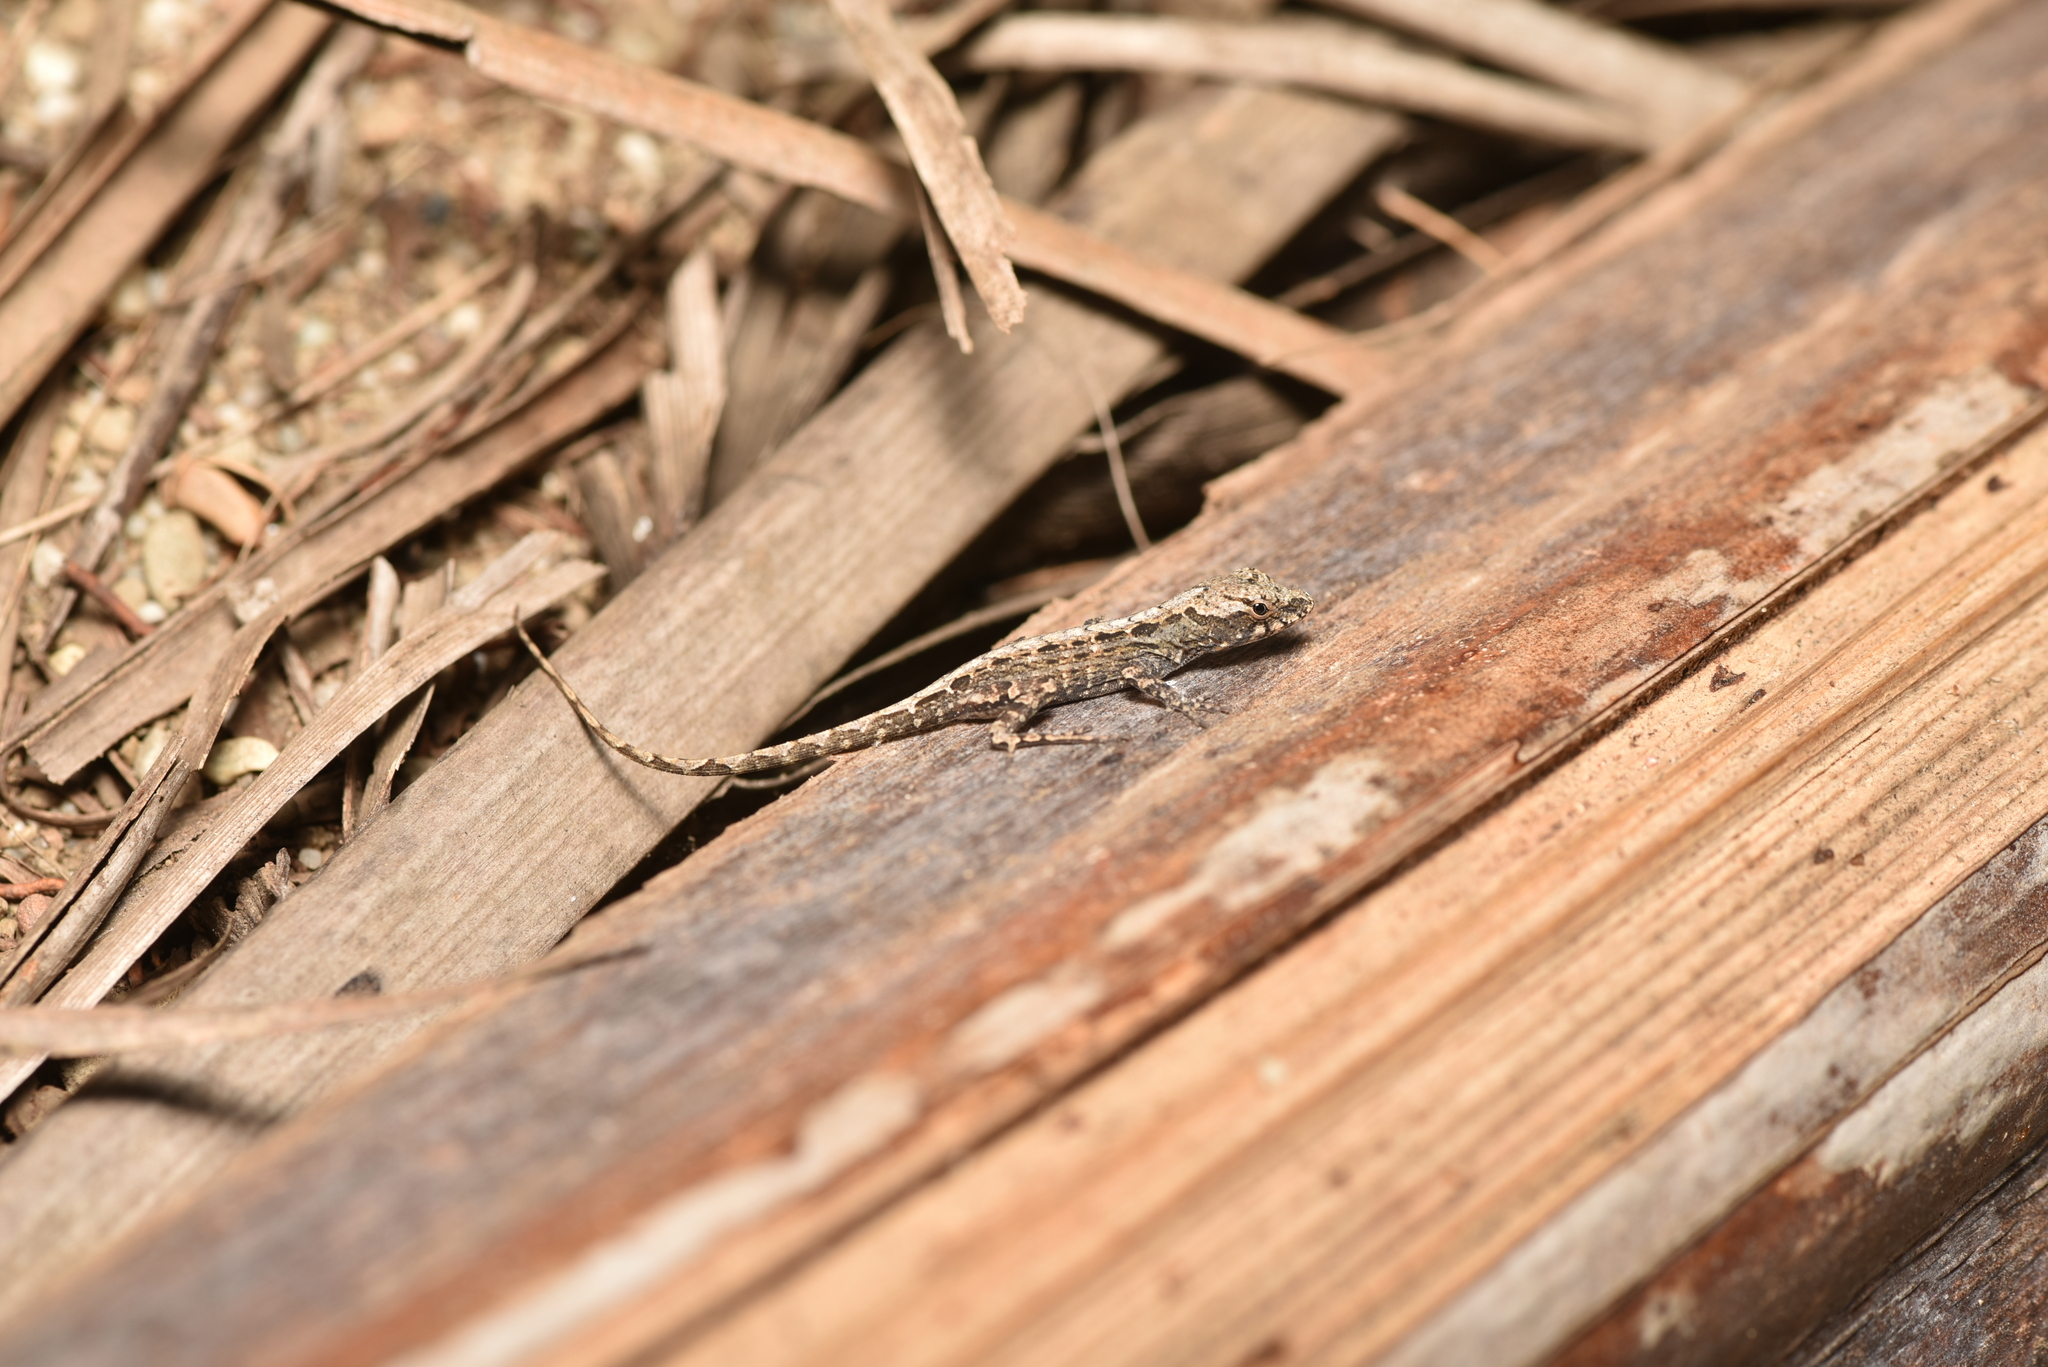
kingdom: Animalia
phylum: Chordata
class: Squamata
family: Dactyloidae
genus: Anolis
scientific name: Anolis sagrei
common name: Brown anole
